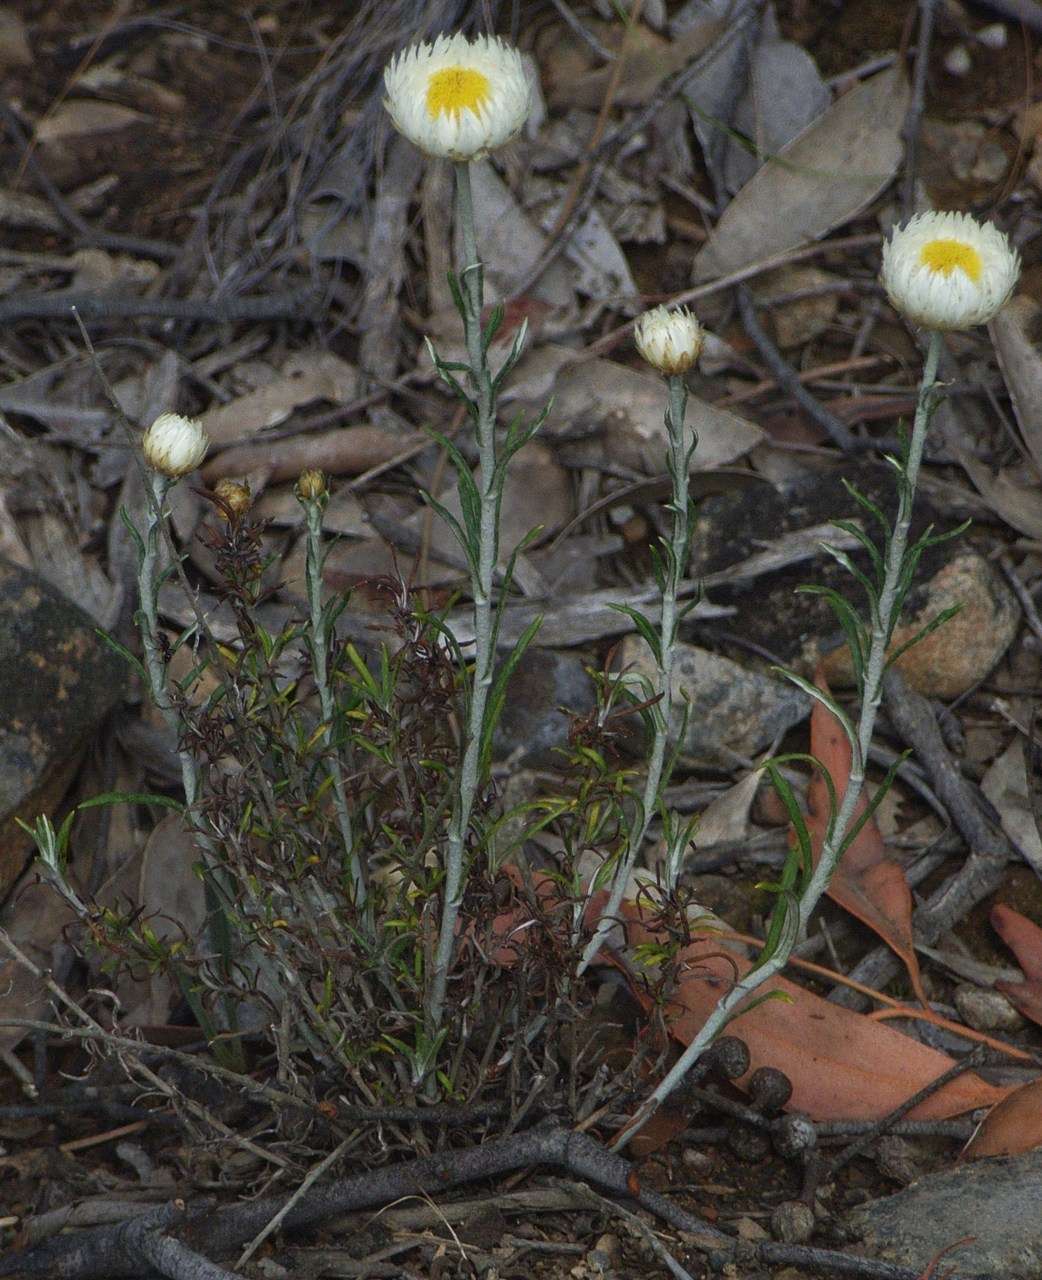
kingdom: Plantae
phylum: Tracheophyta
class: Magnoliopsida
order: Asterales
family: Asteraceae
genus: Chrysocephalum
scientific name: Chrysocephalum baxteri
